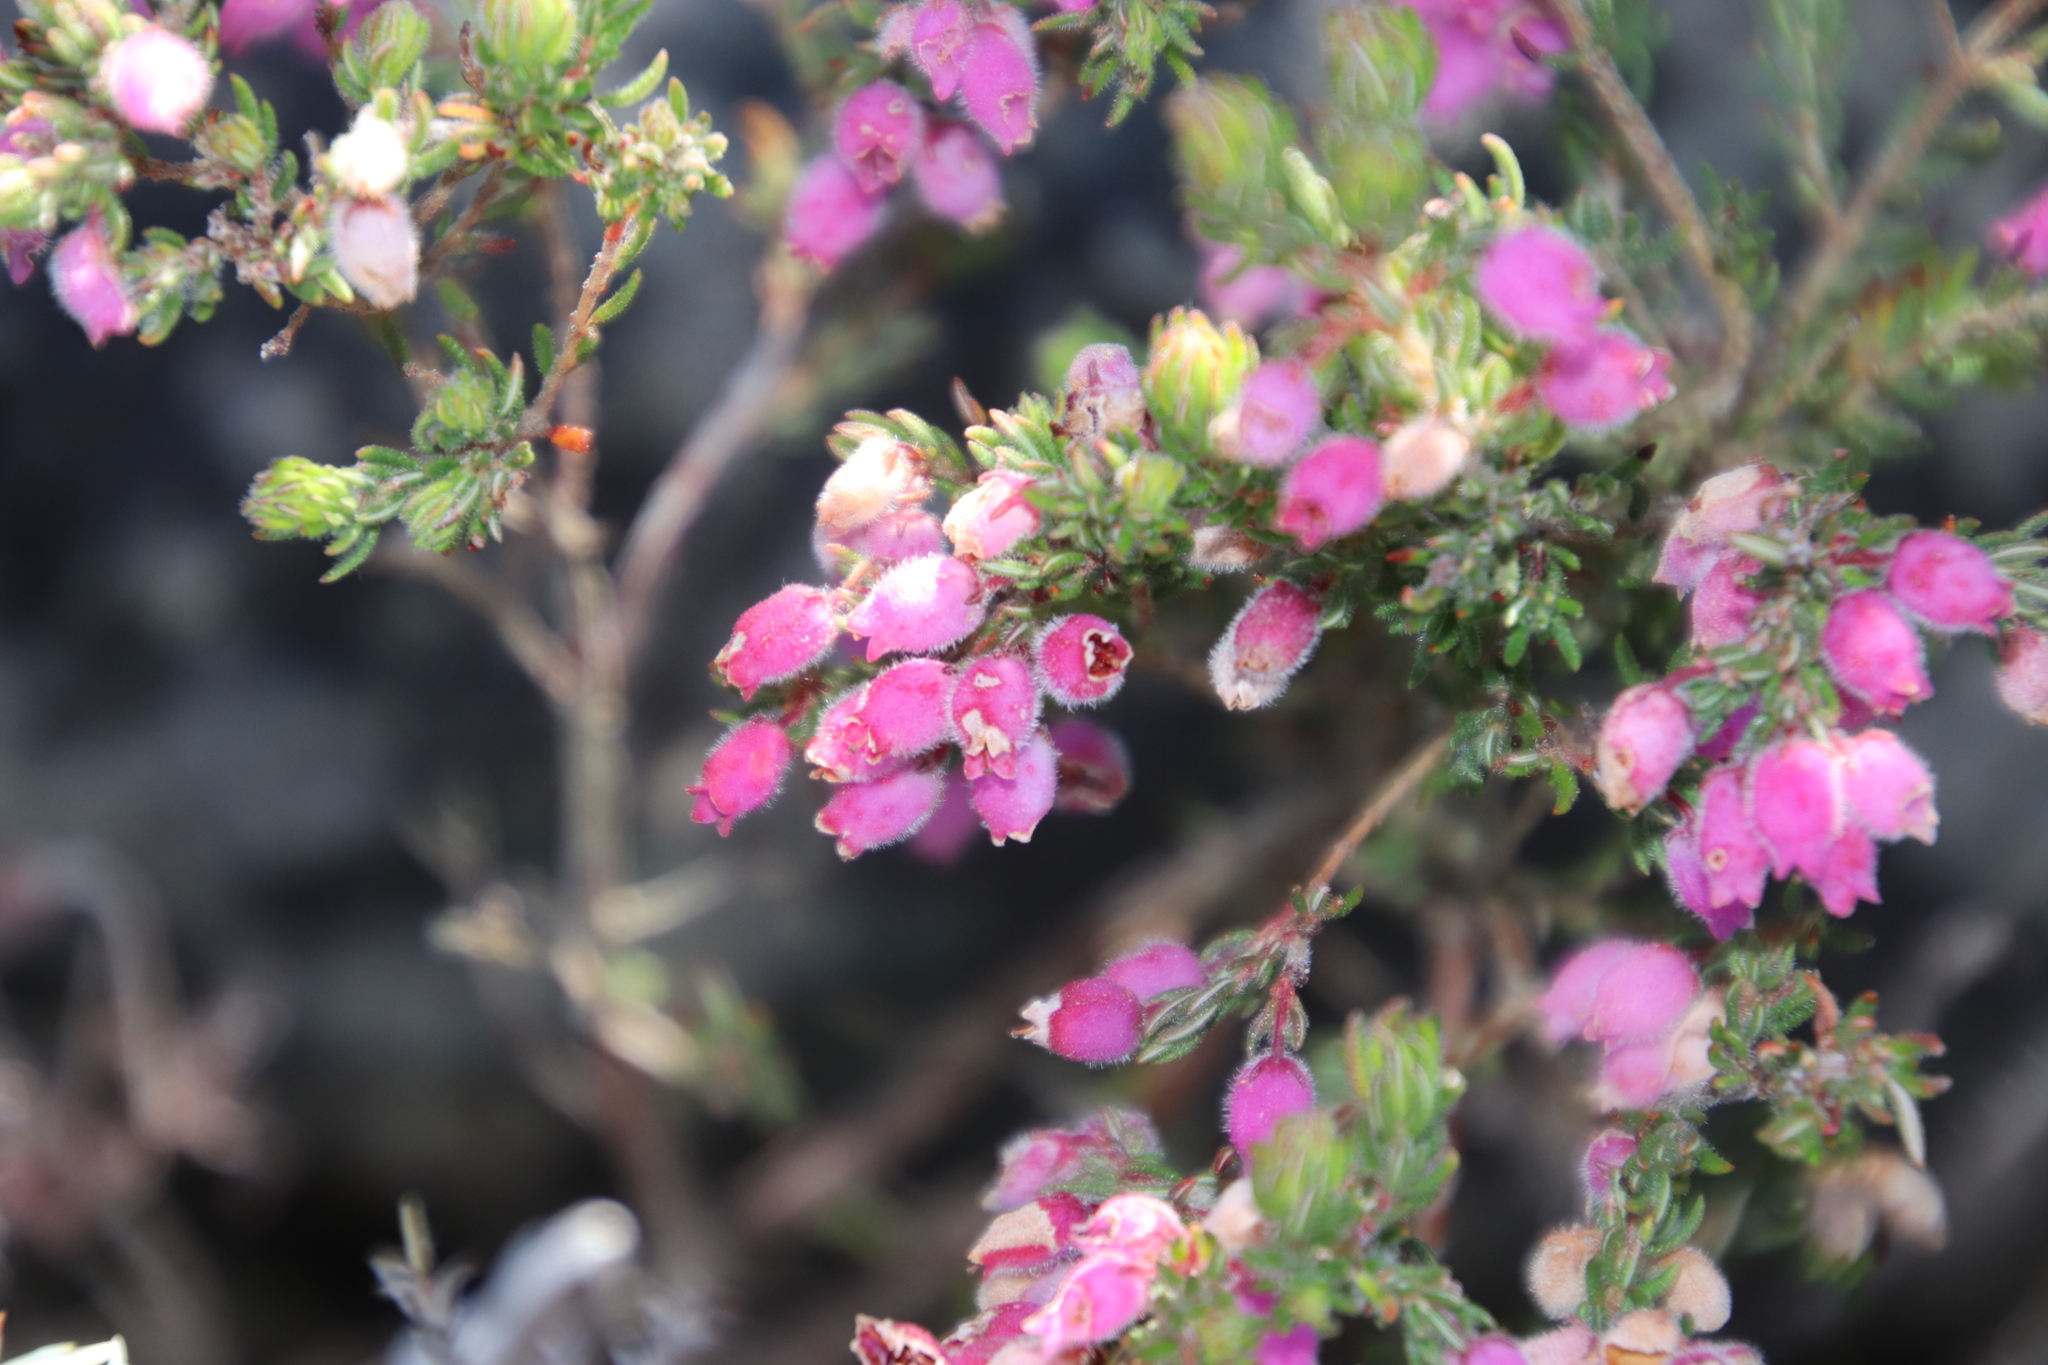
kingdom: Plantae
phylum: Tracheophyta
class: Magnoliopsida
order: Ericales
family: Ericaceae
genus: Erica
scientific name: Erica hirtiflora
